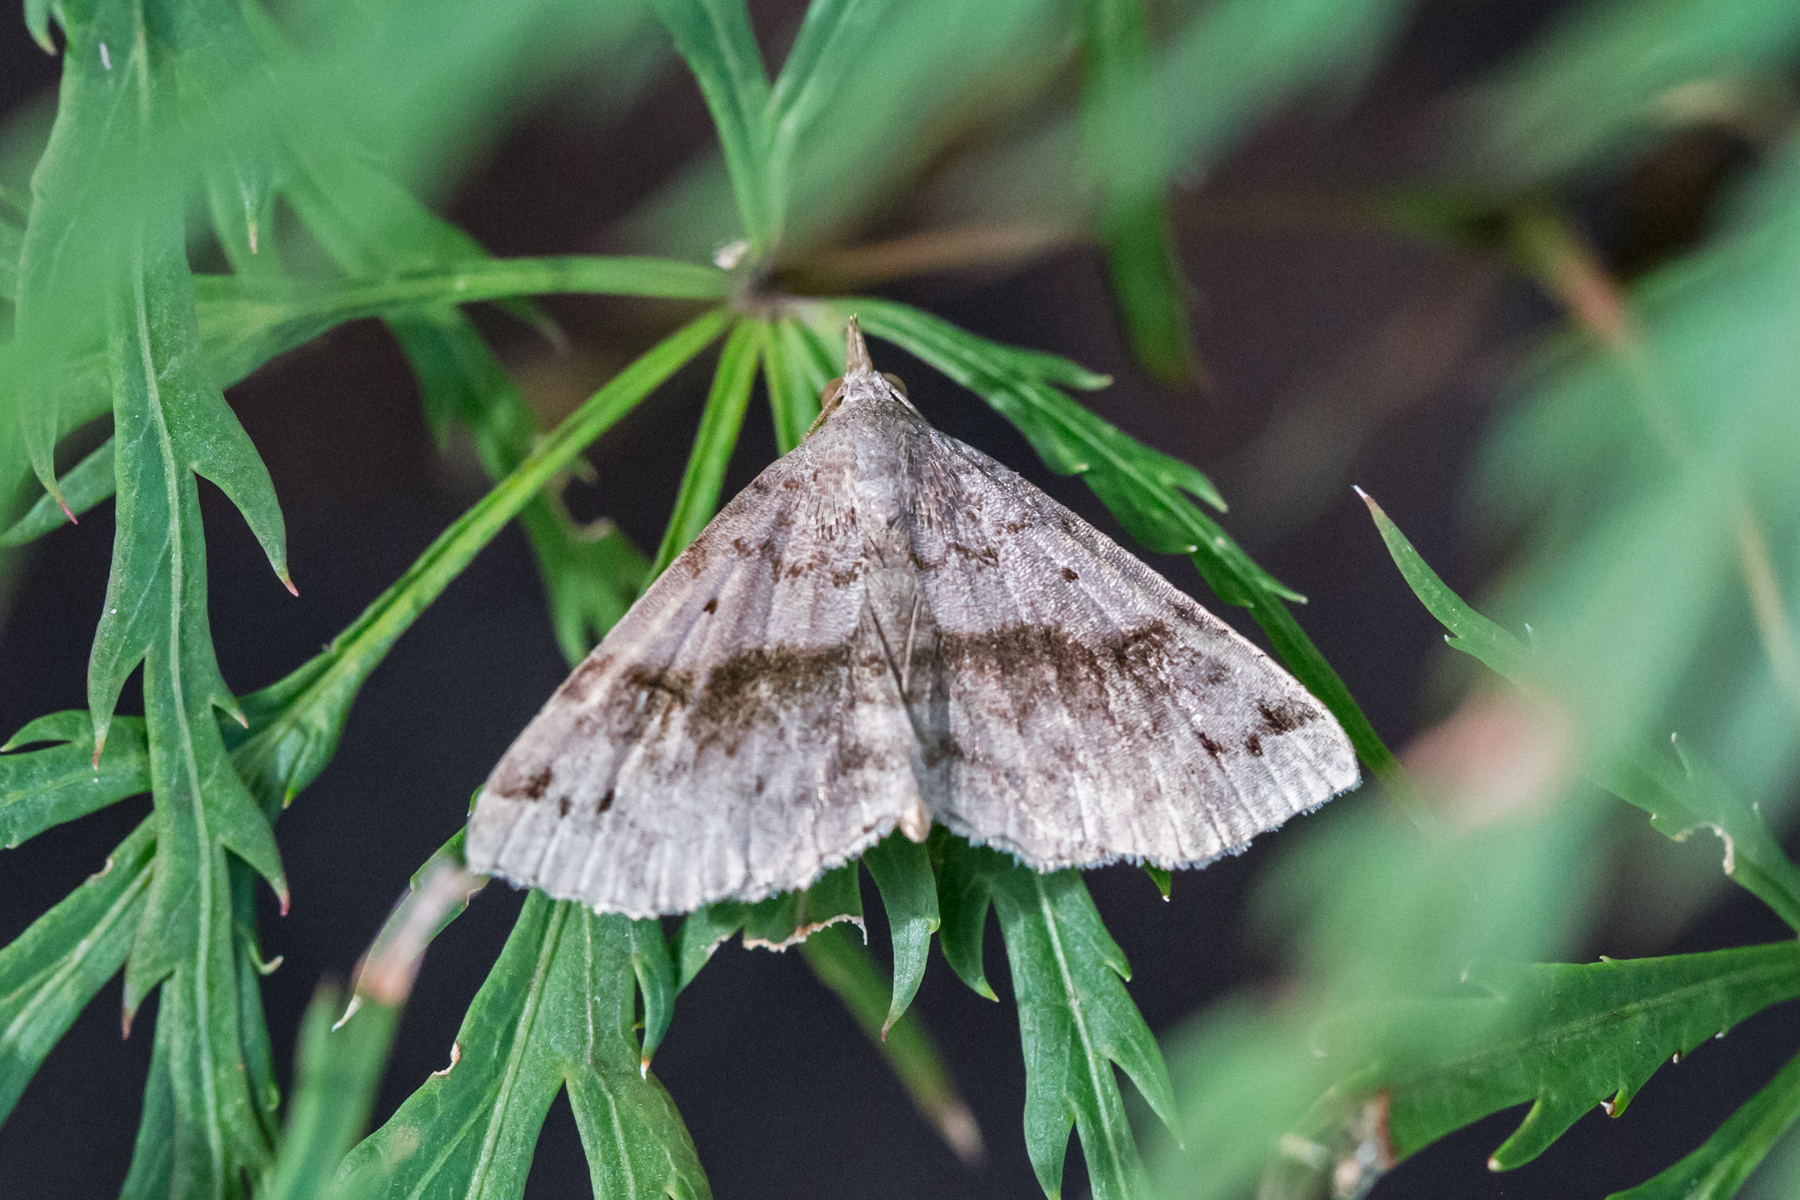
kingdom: Animalia
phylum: Arthropoda
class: Insecta
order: Lepidoptera
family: Erebidae
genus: Spargaloma
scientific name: Spargaloma sexpunctata
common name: Six-spotted gray
